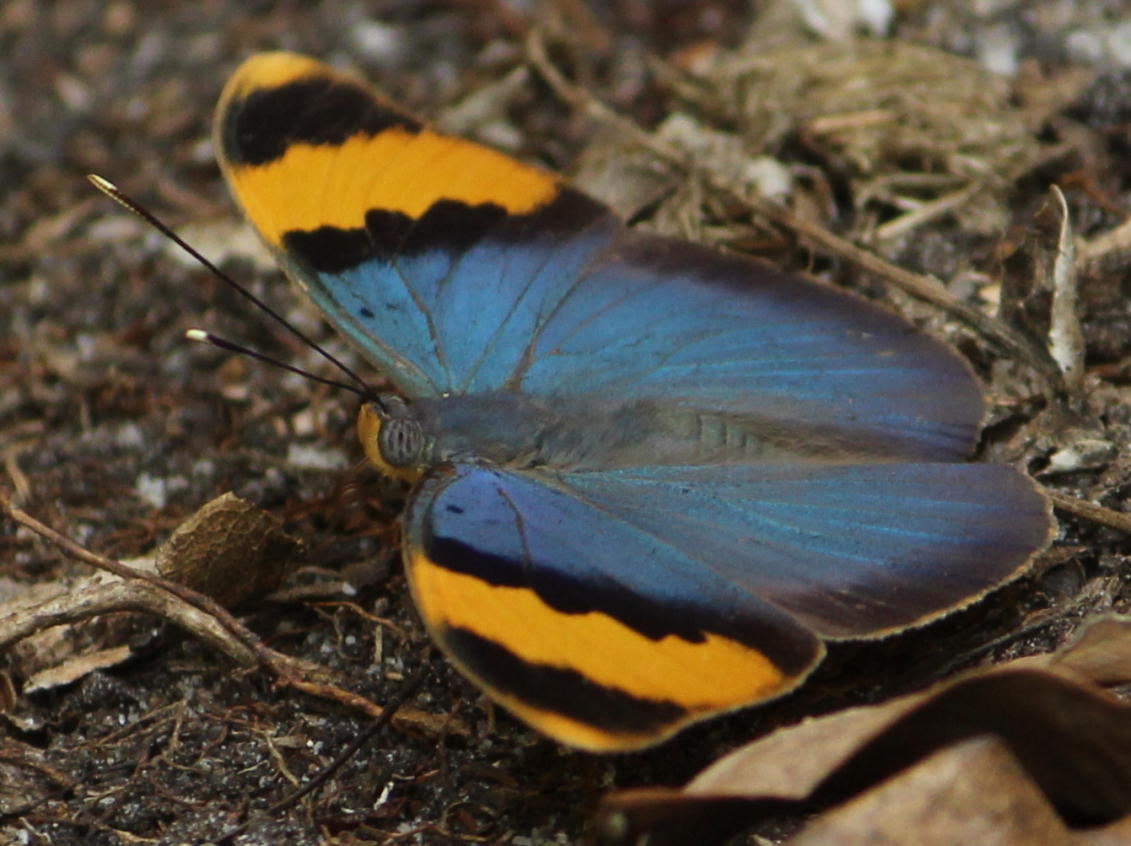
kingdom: Animalia
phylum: Arthropoda
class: Insecta
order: Lepidoptera
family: Nymphalidae
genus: Euphaedra
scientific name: Euphaedra neophron
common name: Gold-banded forester
